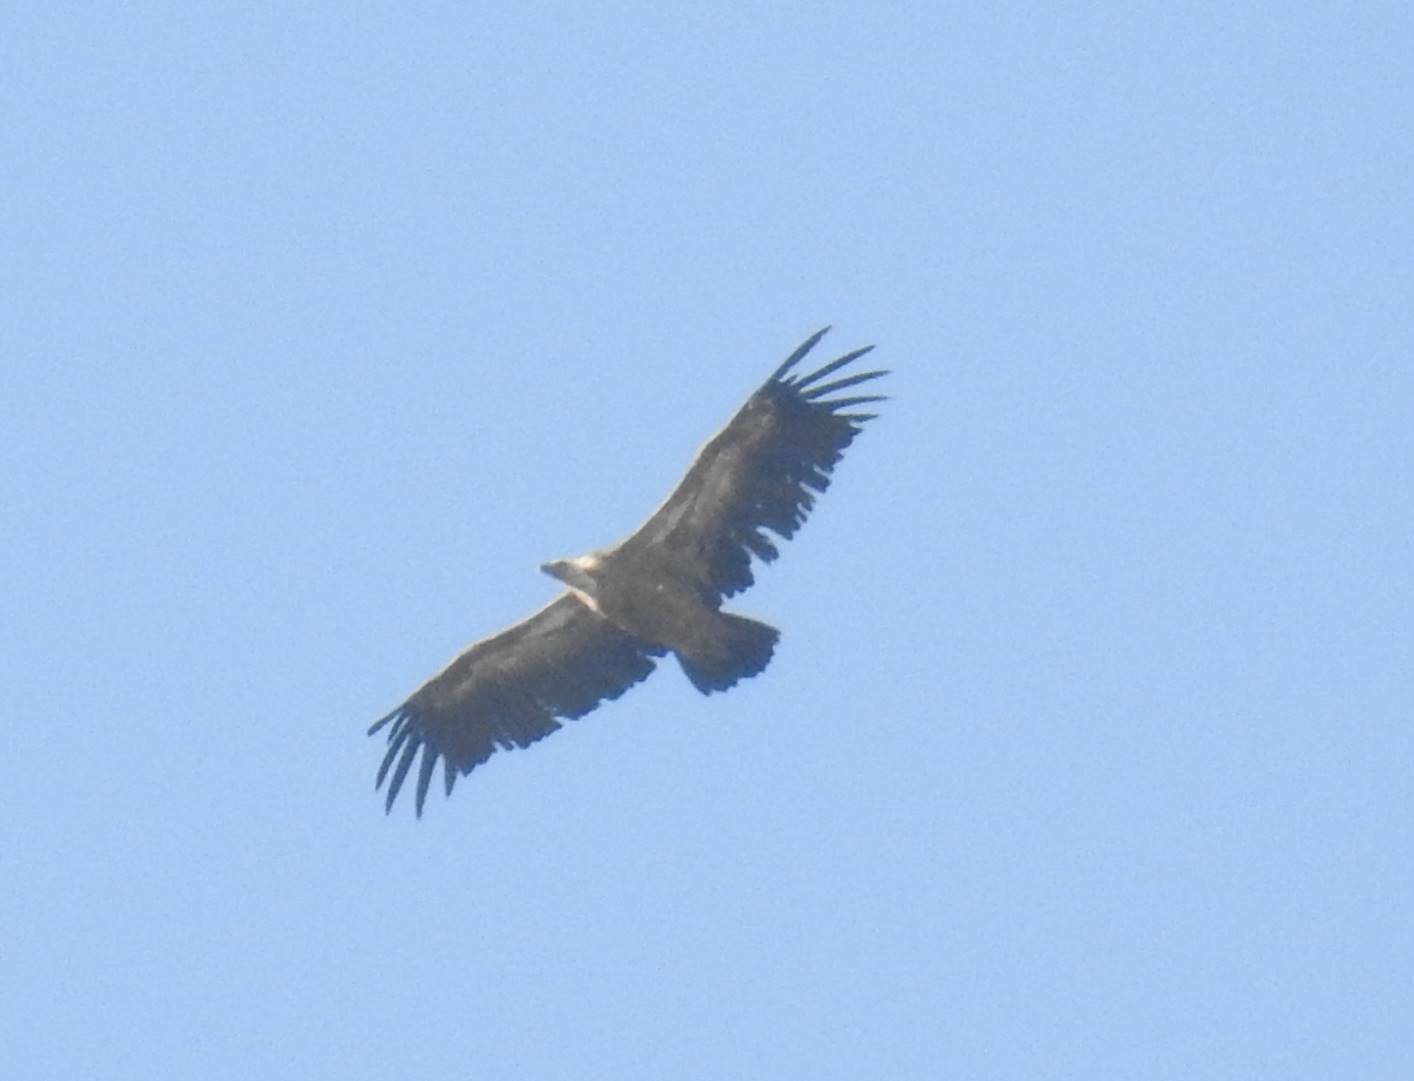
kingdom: Animalia
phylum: Chordata
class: Aves
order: Accipitriformes
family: Accipitridae
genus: Gyps
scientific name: Gyps fulvus
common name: Griffon vulture
